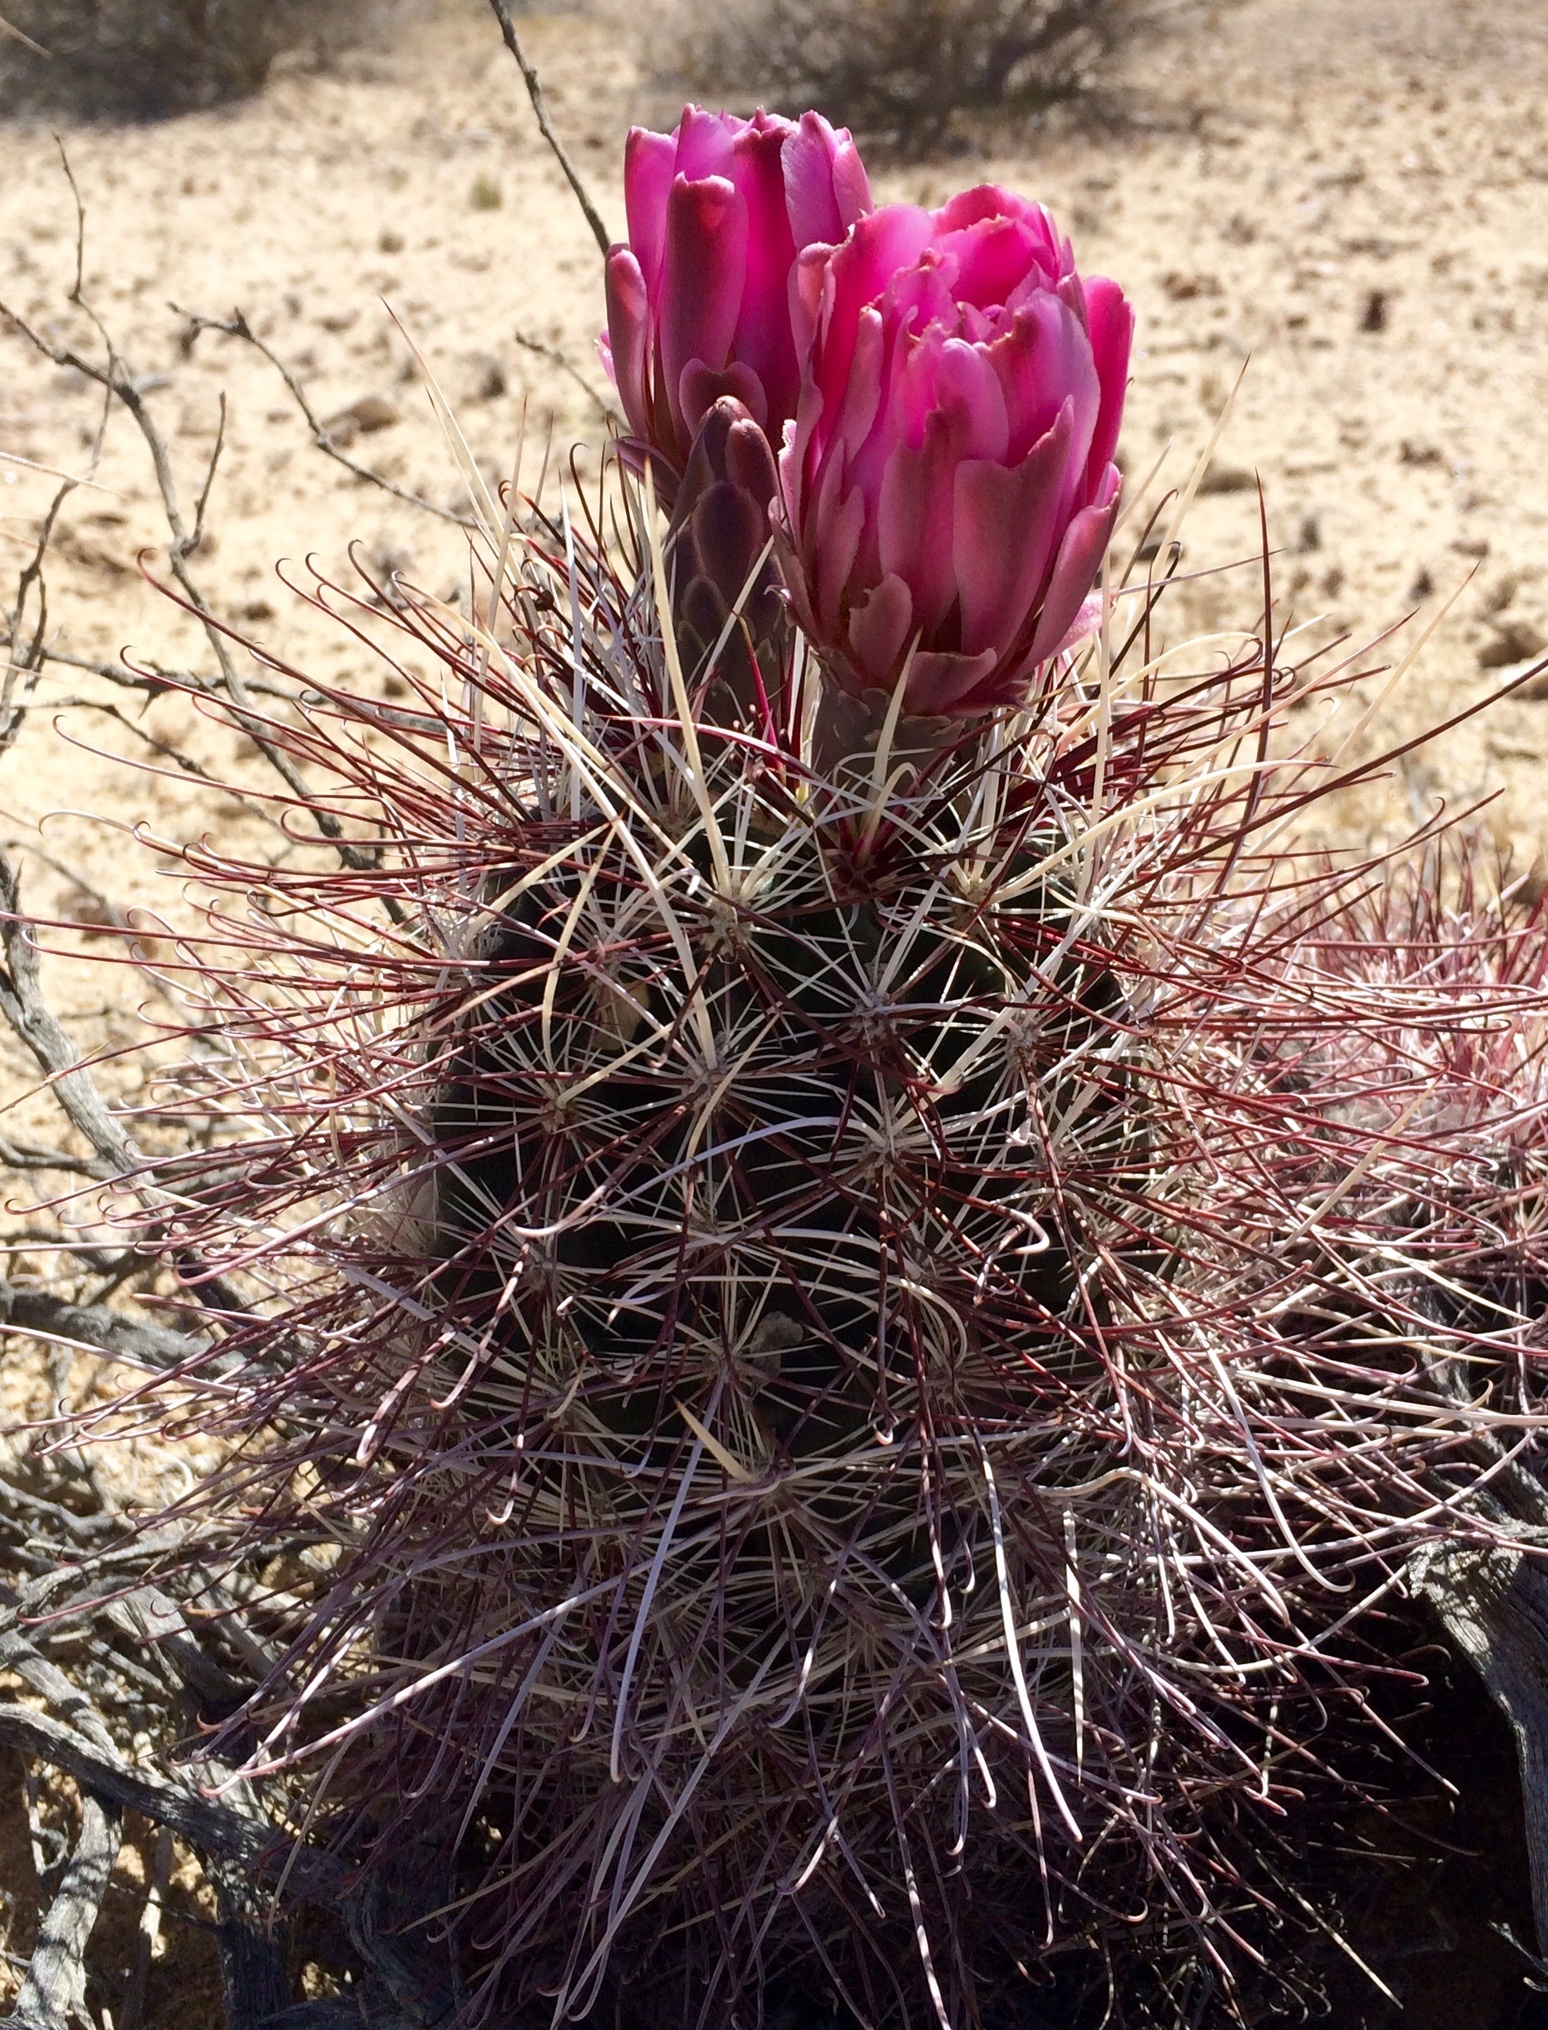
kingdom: Plantae
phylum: Tracheophyta
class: Magnoliopsida
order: Caryophyllales
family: Cactaceae
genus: Sclerocactus
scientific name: Sclerocactus polyancistrus
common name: Mohave fishhook cactus
